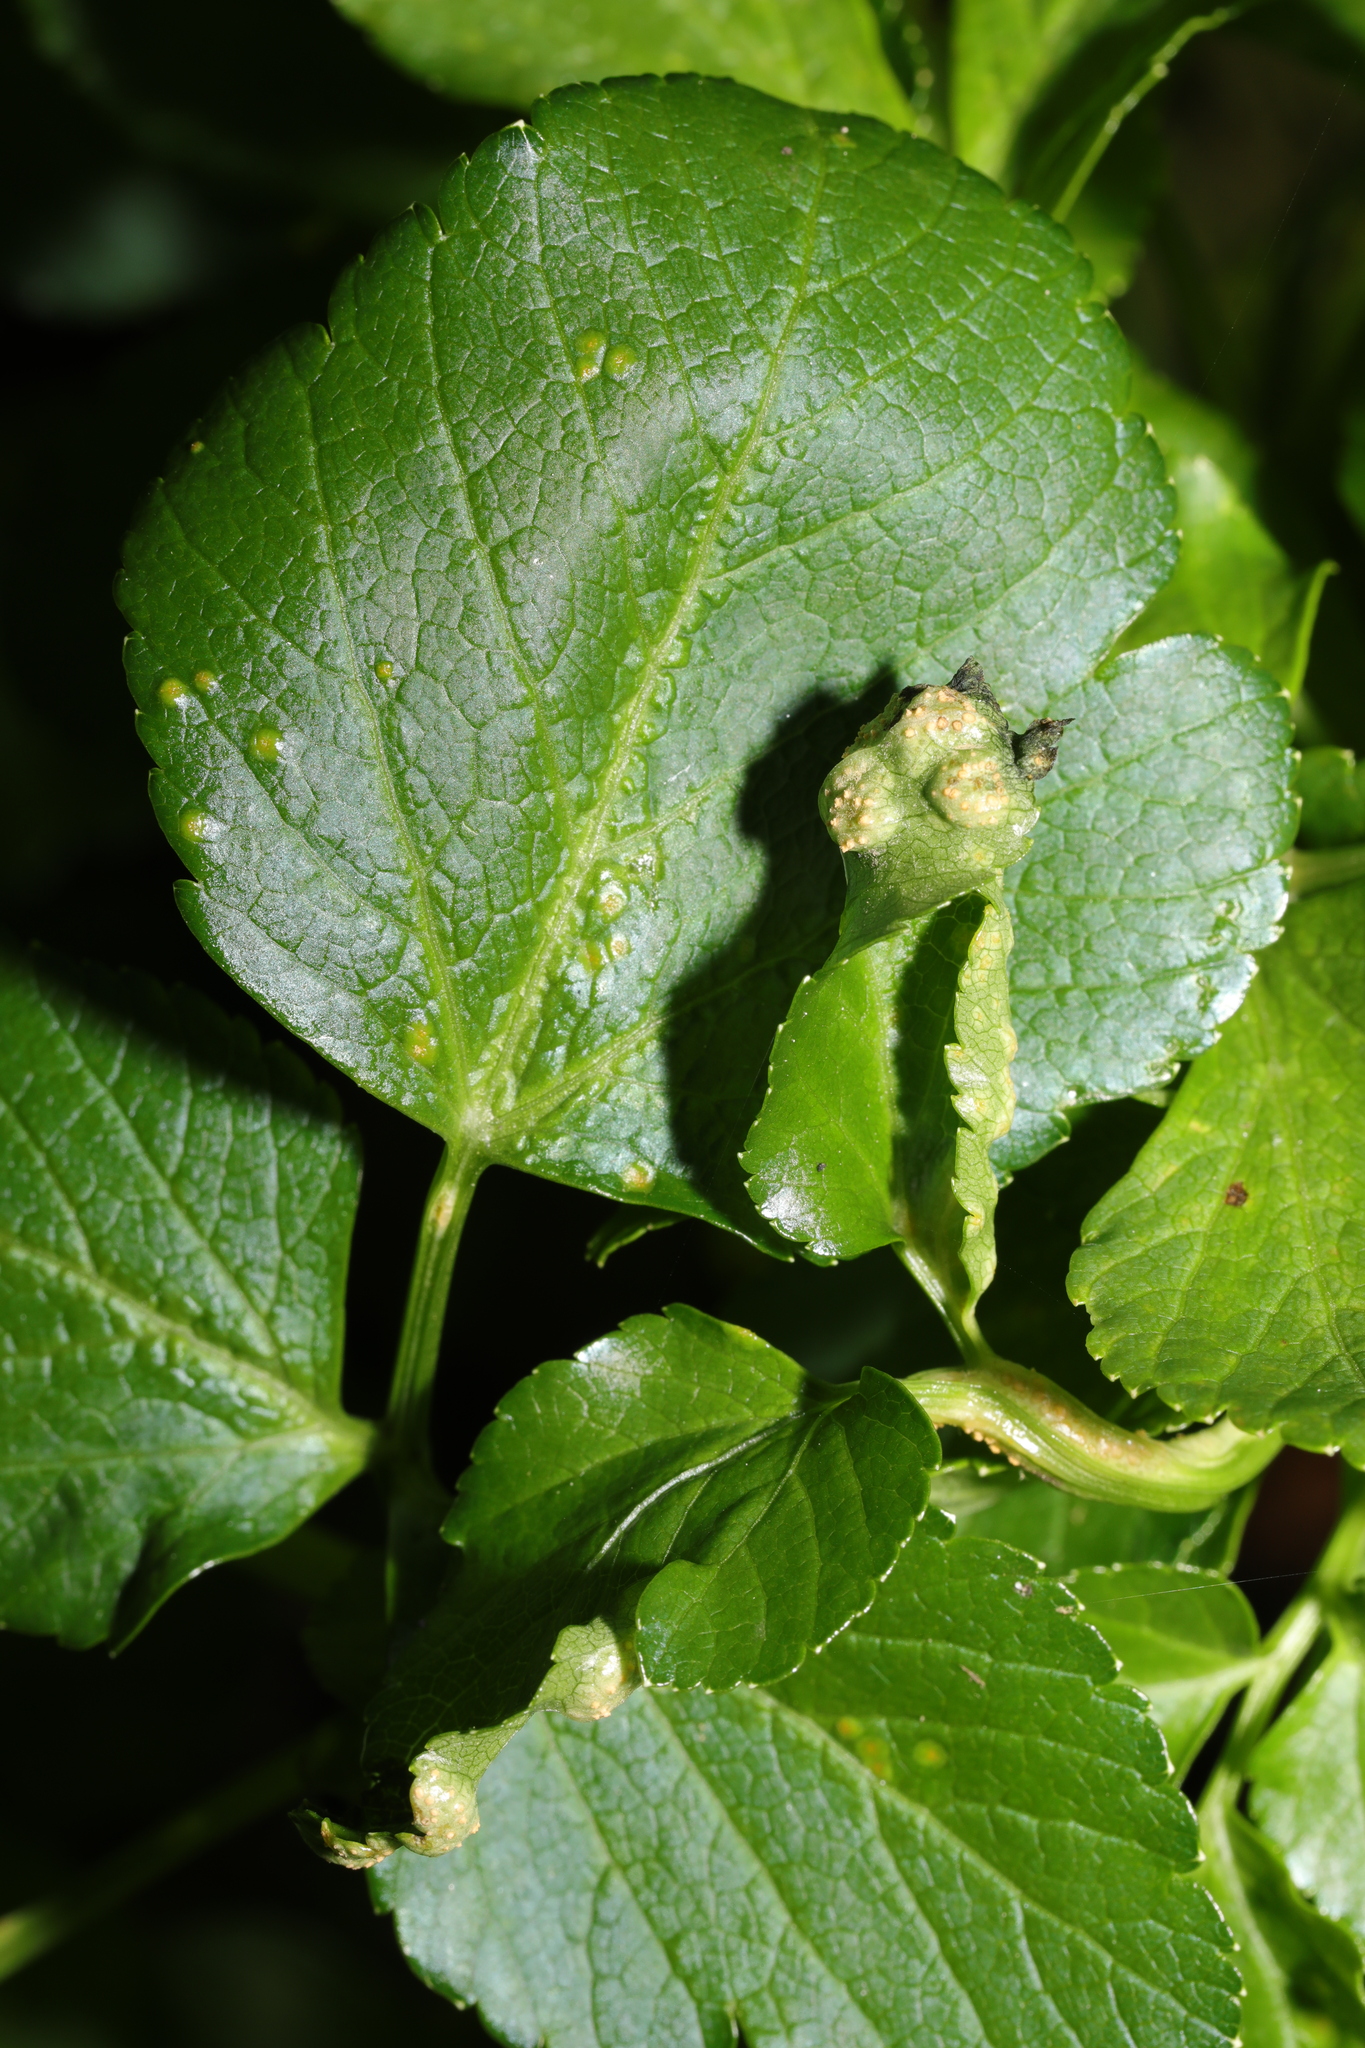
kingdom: Plantae
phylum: Tracheophyta
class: Magnoliopsida
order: Apiales
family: Apiaceae
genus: Smyrnium
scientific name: Smyrnium olusatrum
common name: Alexanders
